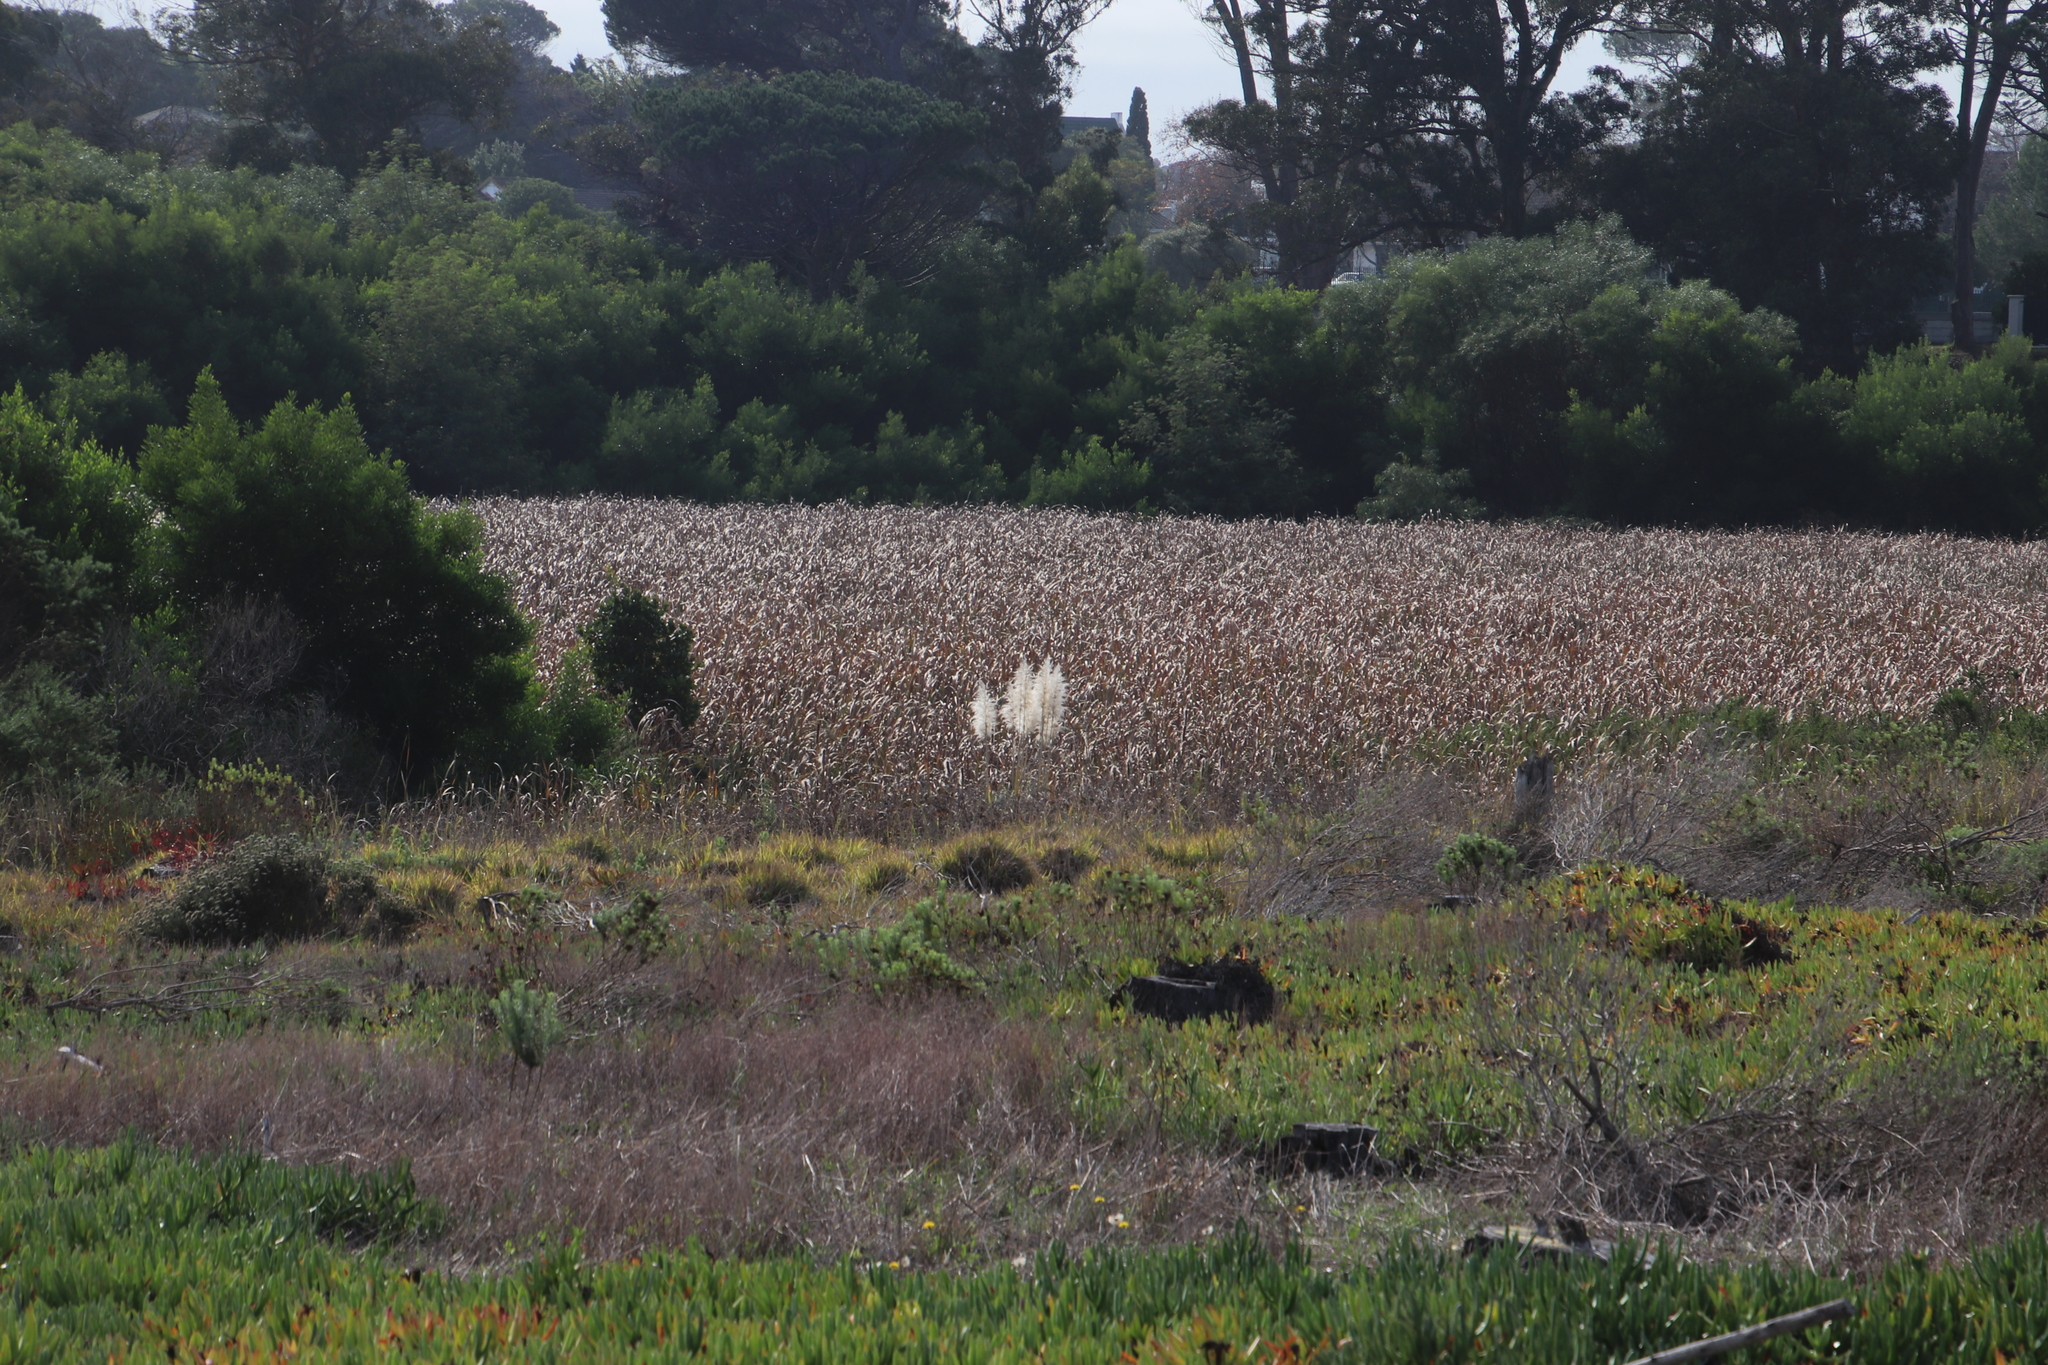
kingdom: Plantae
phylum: Tracheophyta
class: Liliopsida
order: Poales
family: Poaceae
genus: Cortaderia
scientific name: Cortaderia selloana
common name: Uruguayan pampas grass
